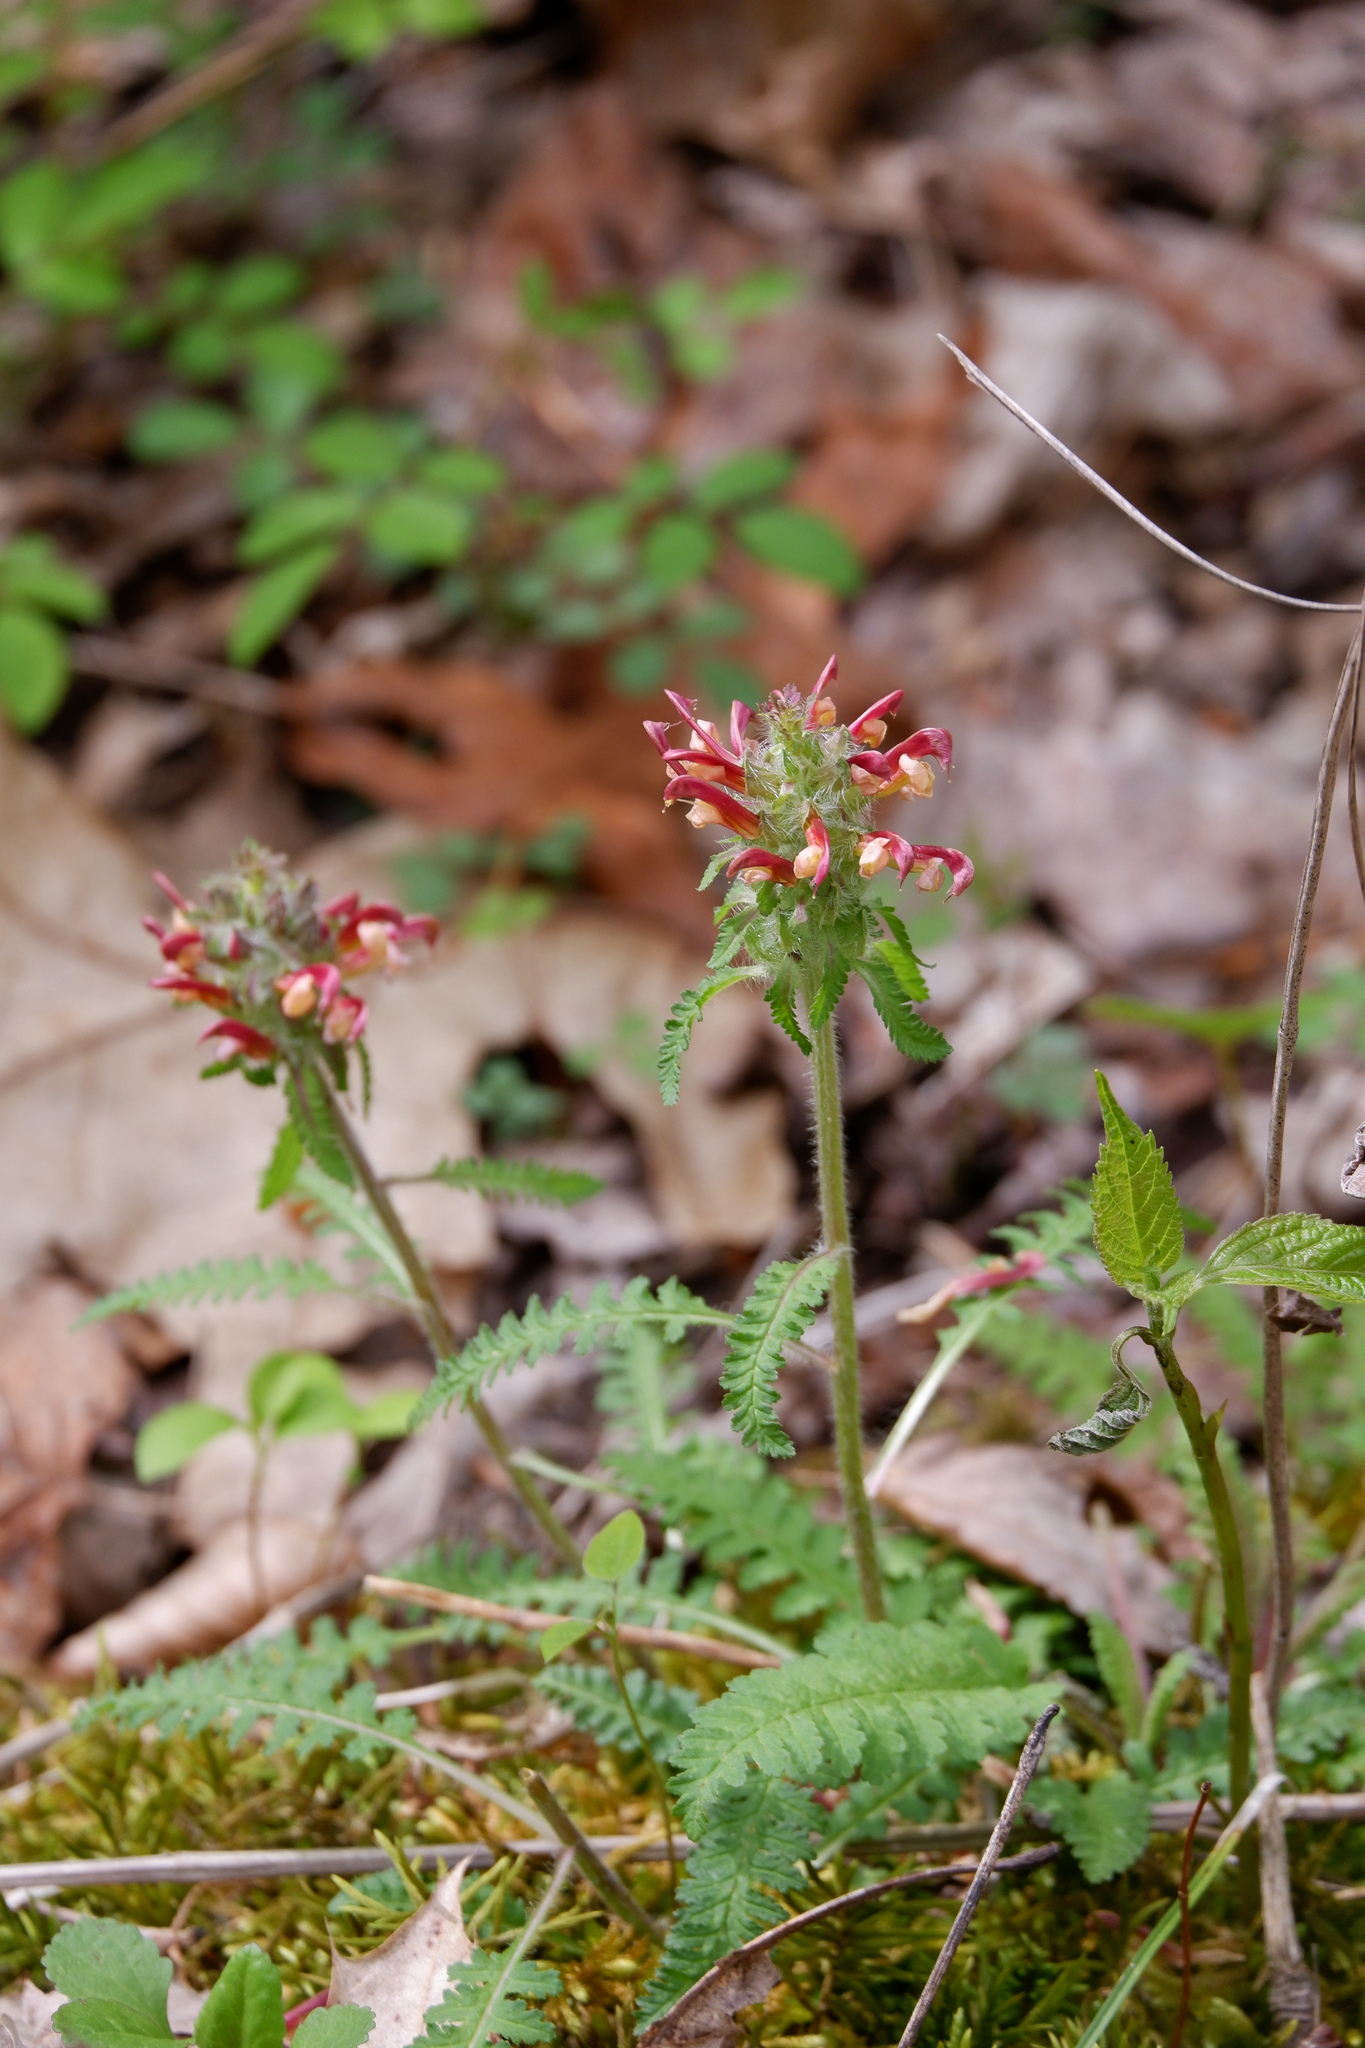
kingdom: Plantae
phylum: Tracheophyta
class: Magnoliopsida
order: Lamiales
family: Orobanchaceae
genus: Pedicularis
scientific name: Pedicularis canadensis
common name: Early lousewort
